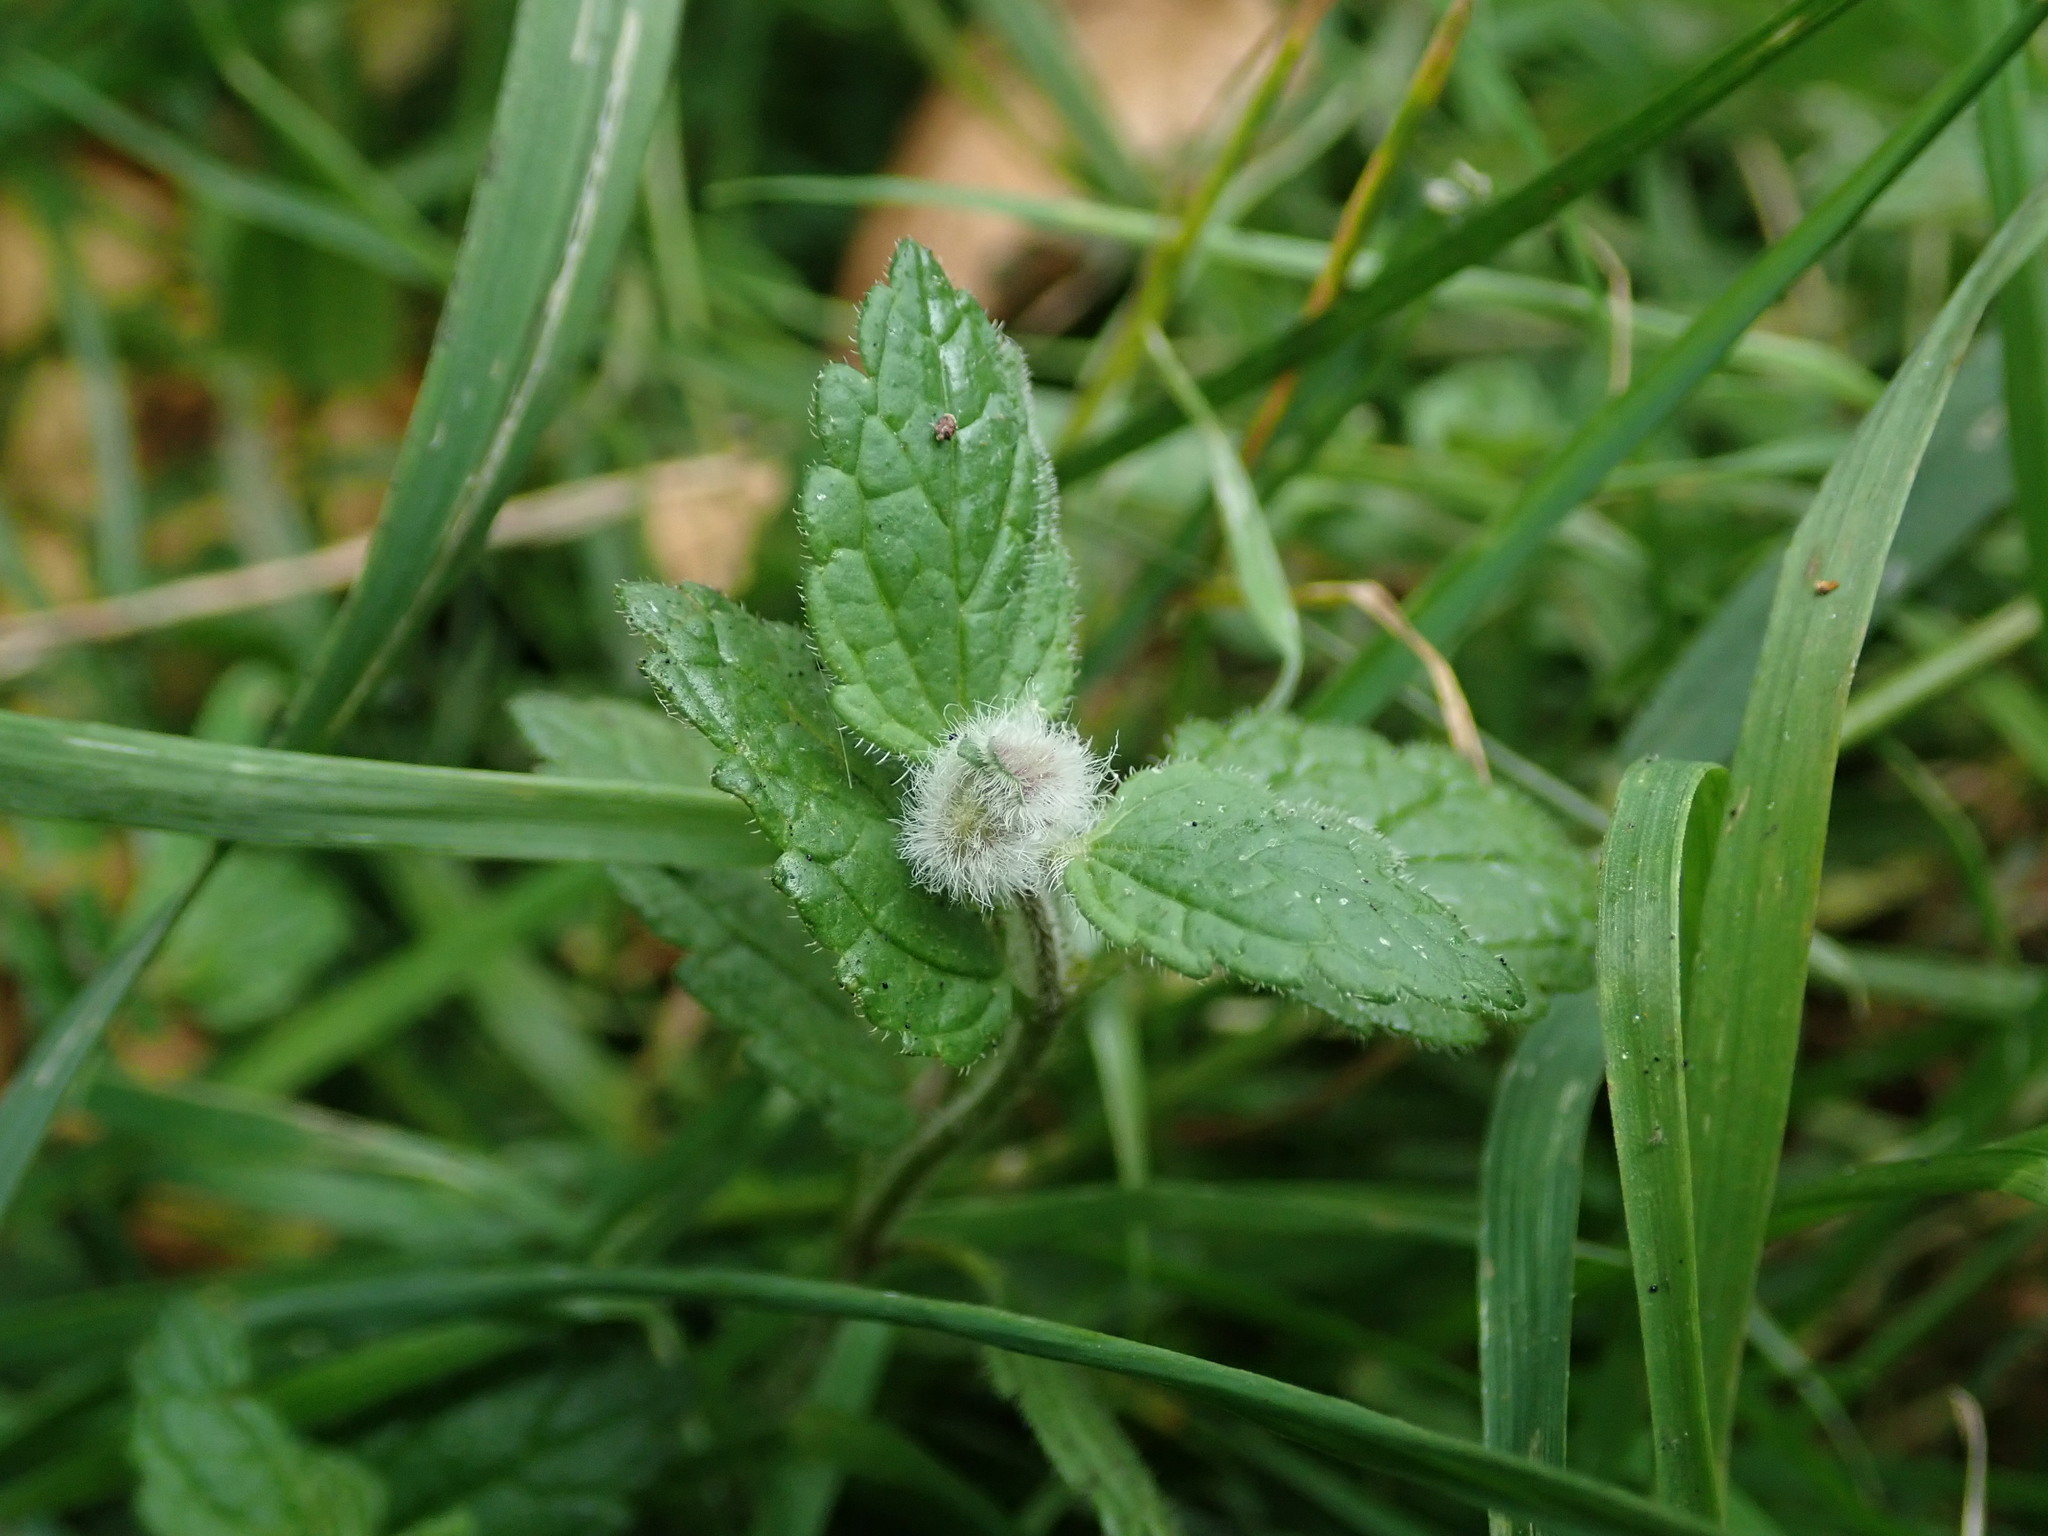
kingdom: Animalia
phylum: Arthropoda
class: Insecta
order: Diptera
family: Cecidomyiidae
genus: Jaapiella
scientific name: Jaapiella veronicae
